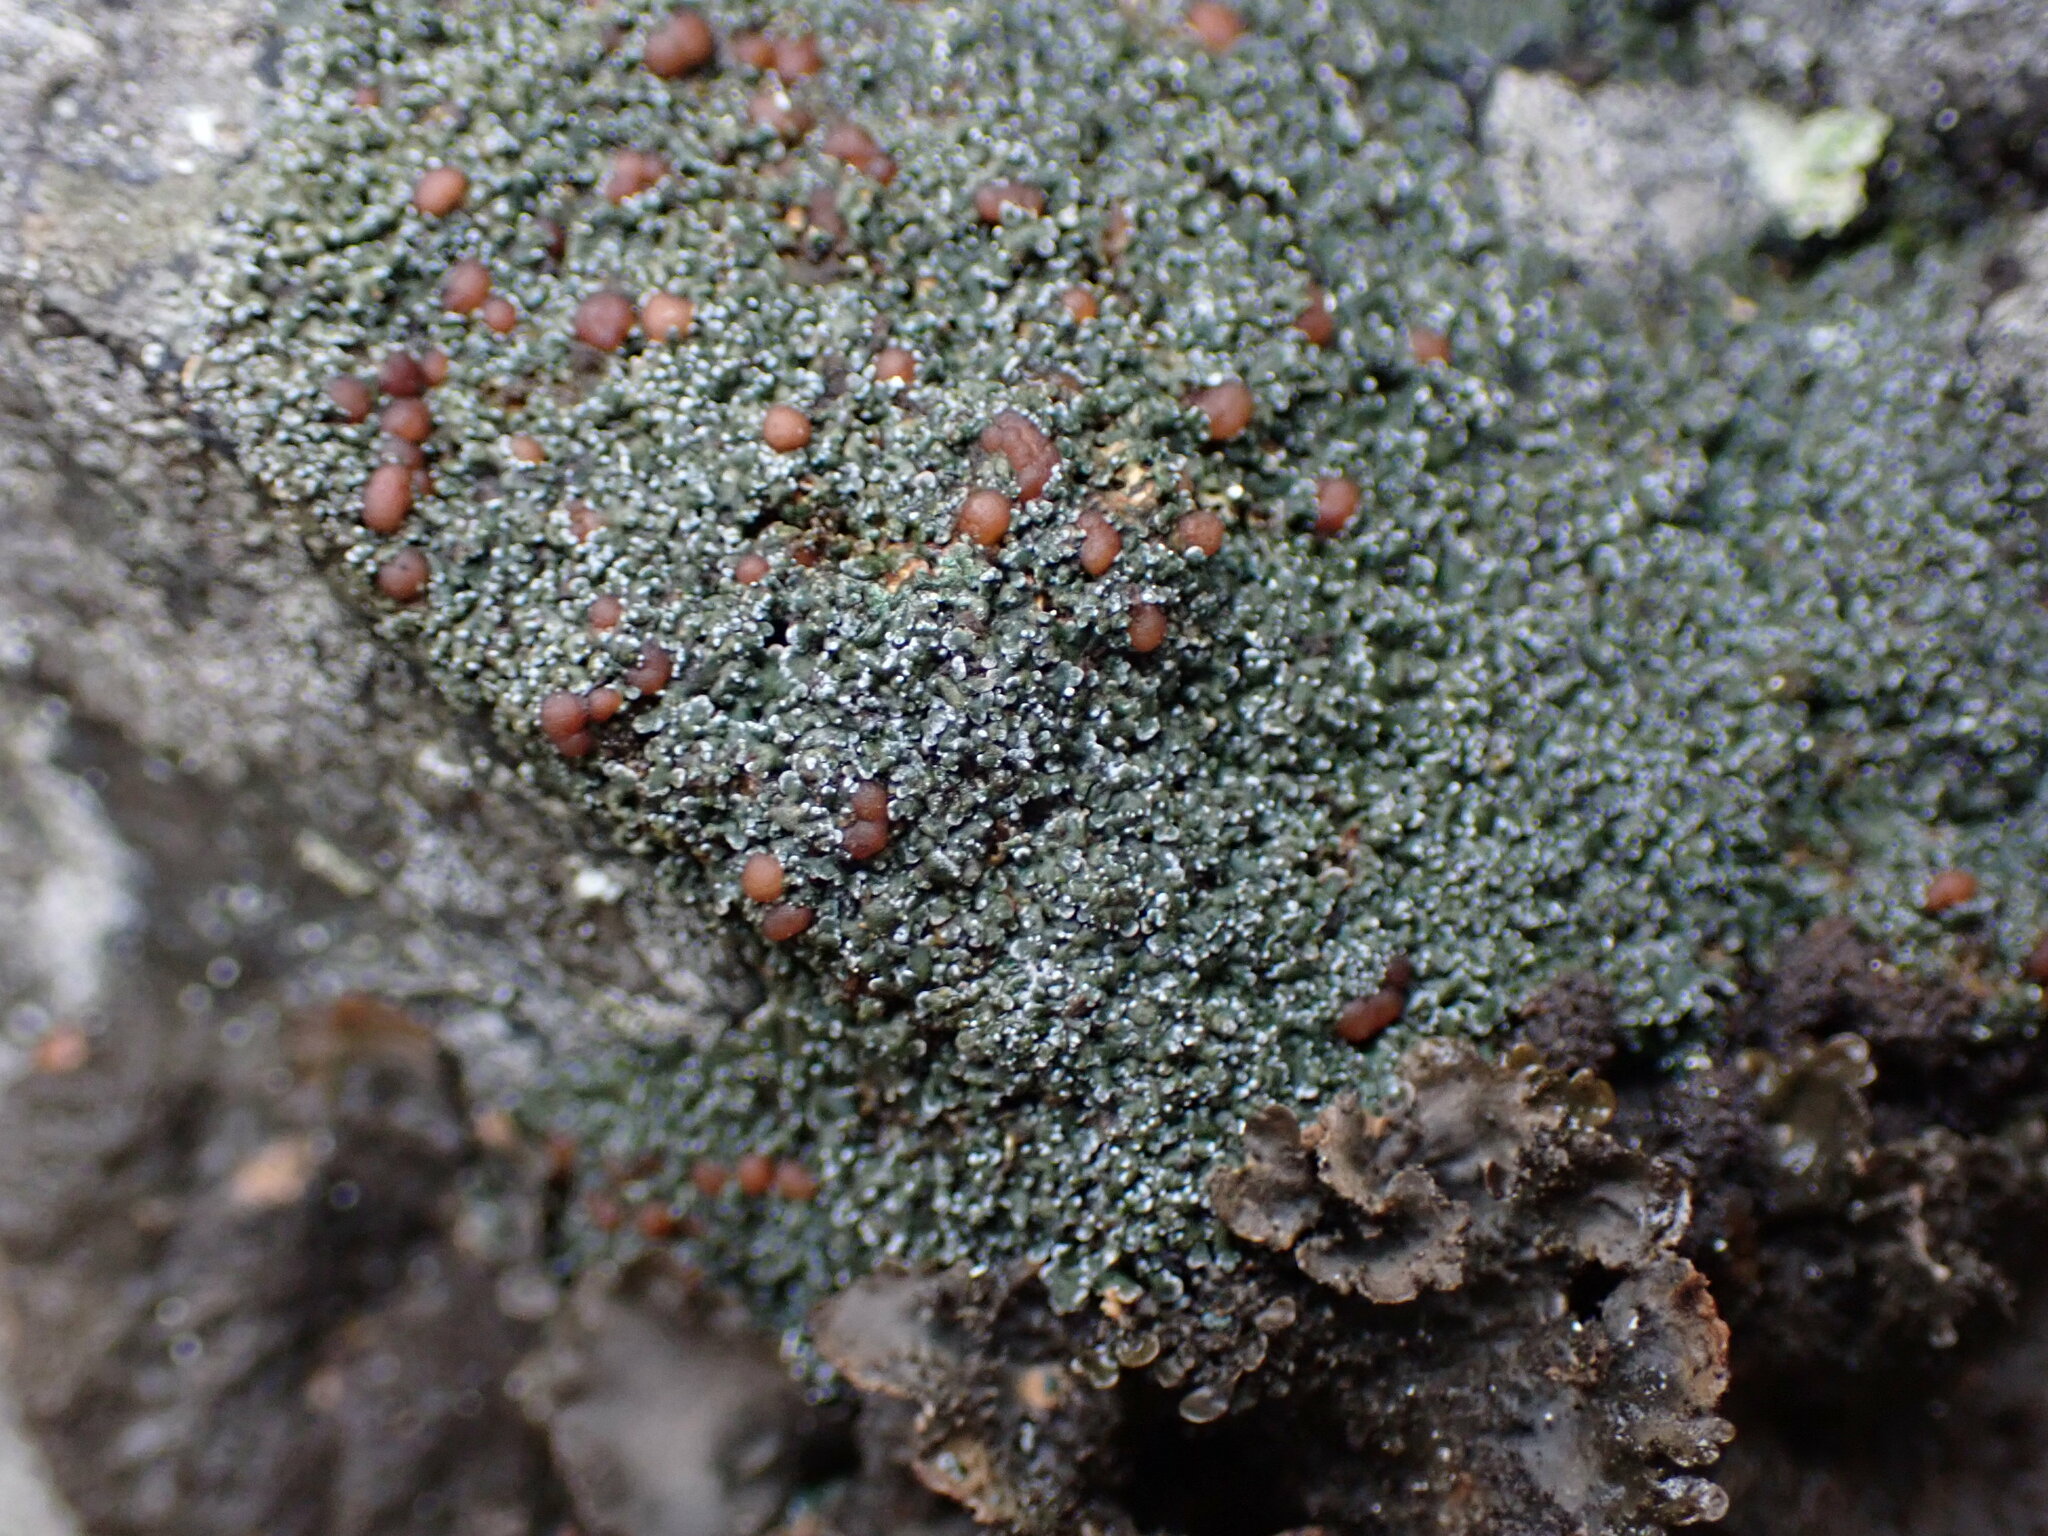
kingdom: Fungi
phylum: Ascomycota
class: Lecanoromycetes
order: Peltigerales
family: Pannariaceae
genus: Fuscopannaria
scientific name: Fuscopannaria maritima
